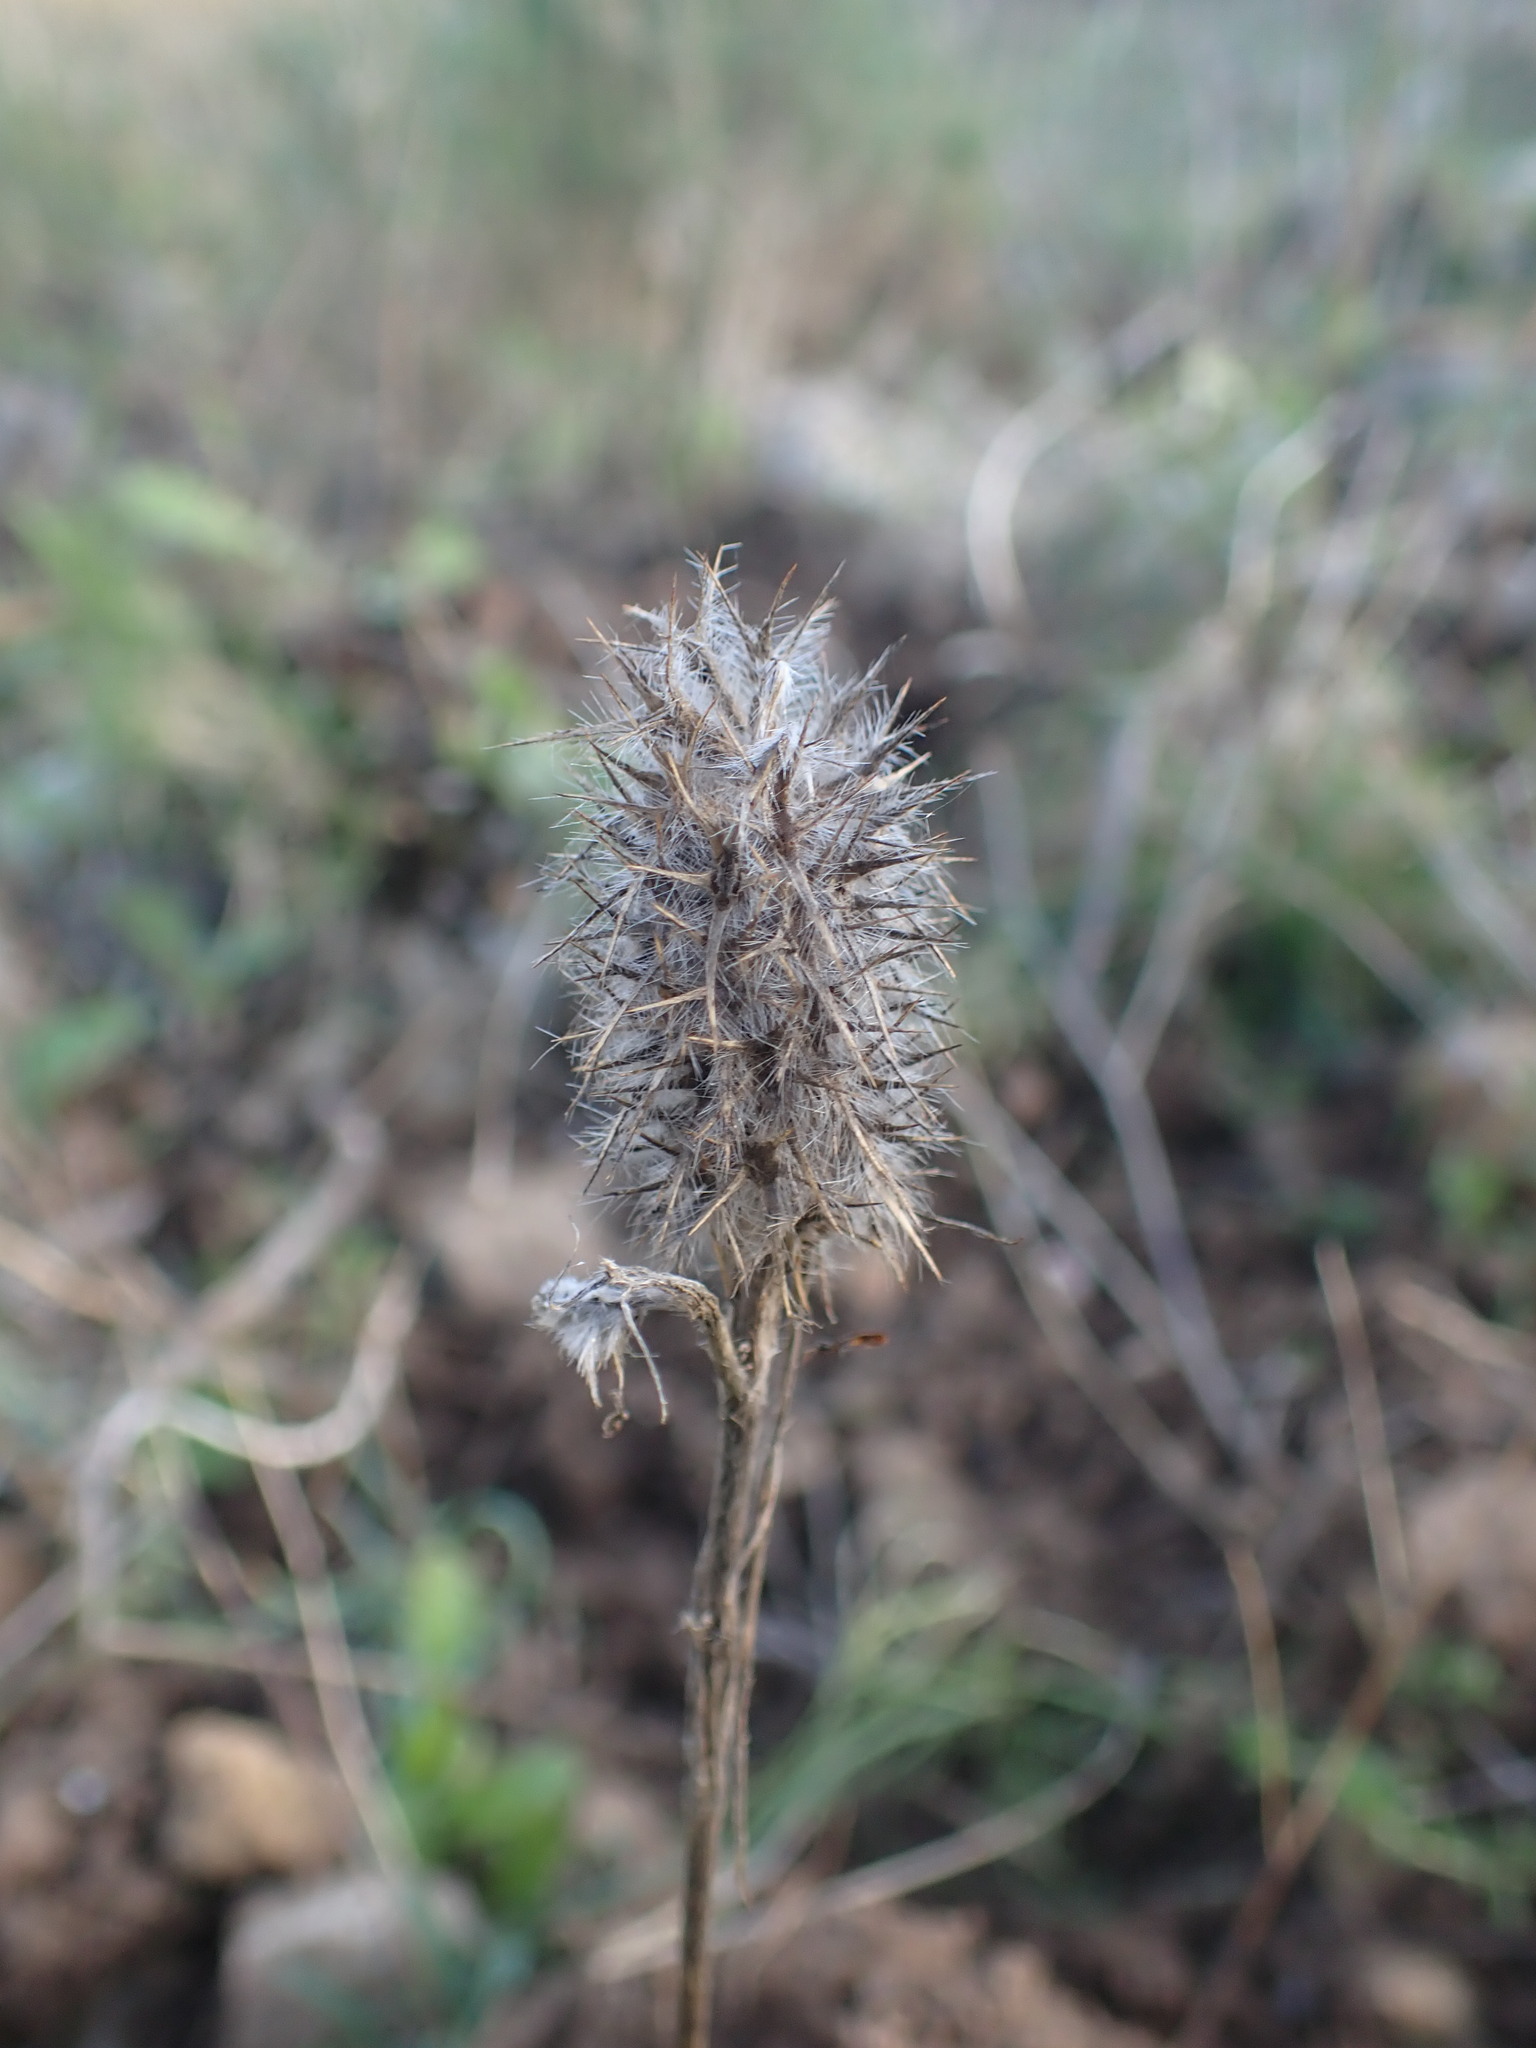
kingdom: Plantae
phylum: Tracheophyta
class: Magnoliopsida
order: Fabales
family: Fabaceae
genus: Trifolium
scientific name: Trifolium angustifolium
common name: Narrow clover
